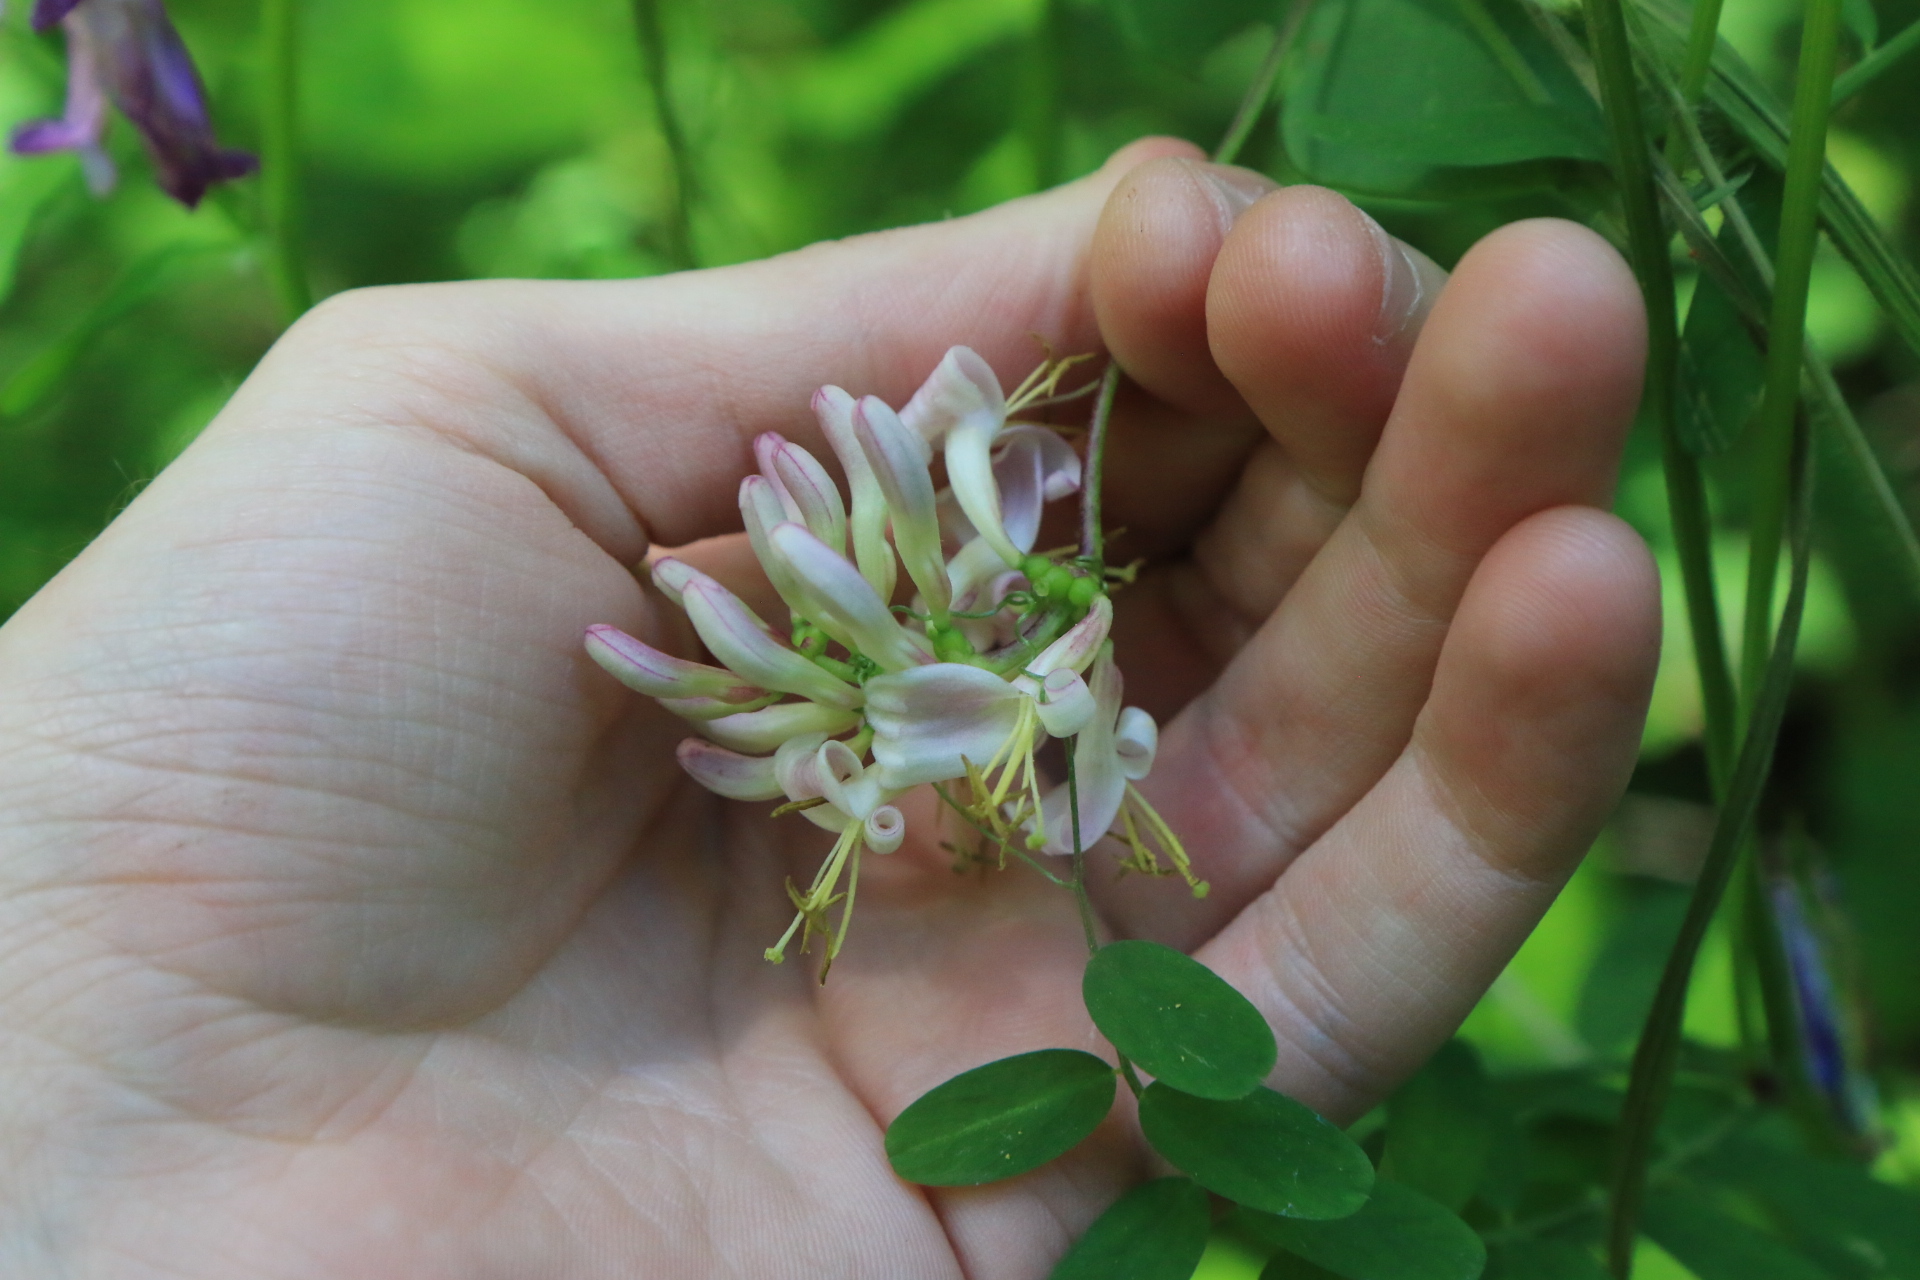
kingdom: Plantae
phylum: Tracheophyta
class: Magnoliopsida
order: Dipsacales
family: Caprifoliaceae
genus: Lonicera
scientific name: Lonicera hispidula
